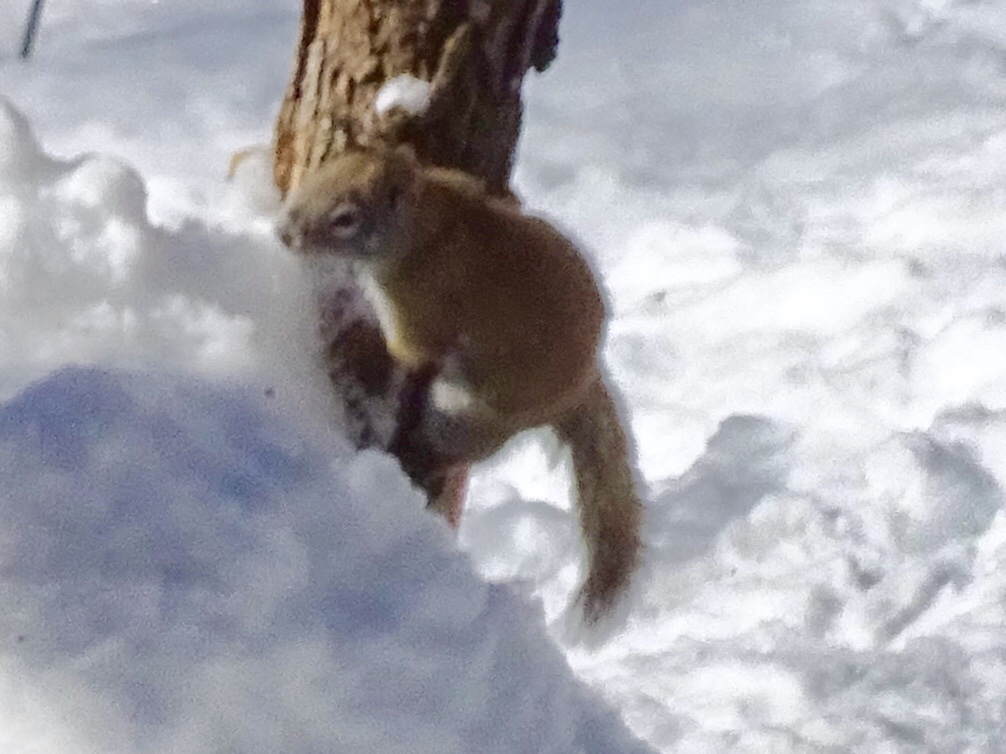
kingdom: Animalia
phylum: Chordata
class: Mammalia
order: Rodentia
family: Sciuridae
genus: Tamiasciurus
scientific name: Tamiasciurus hudsonicus
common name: Red squirrel
